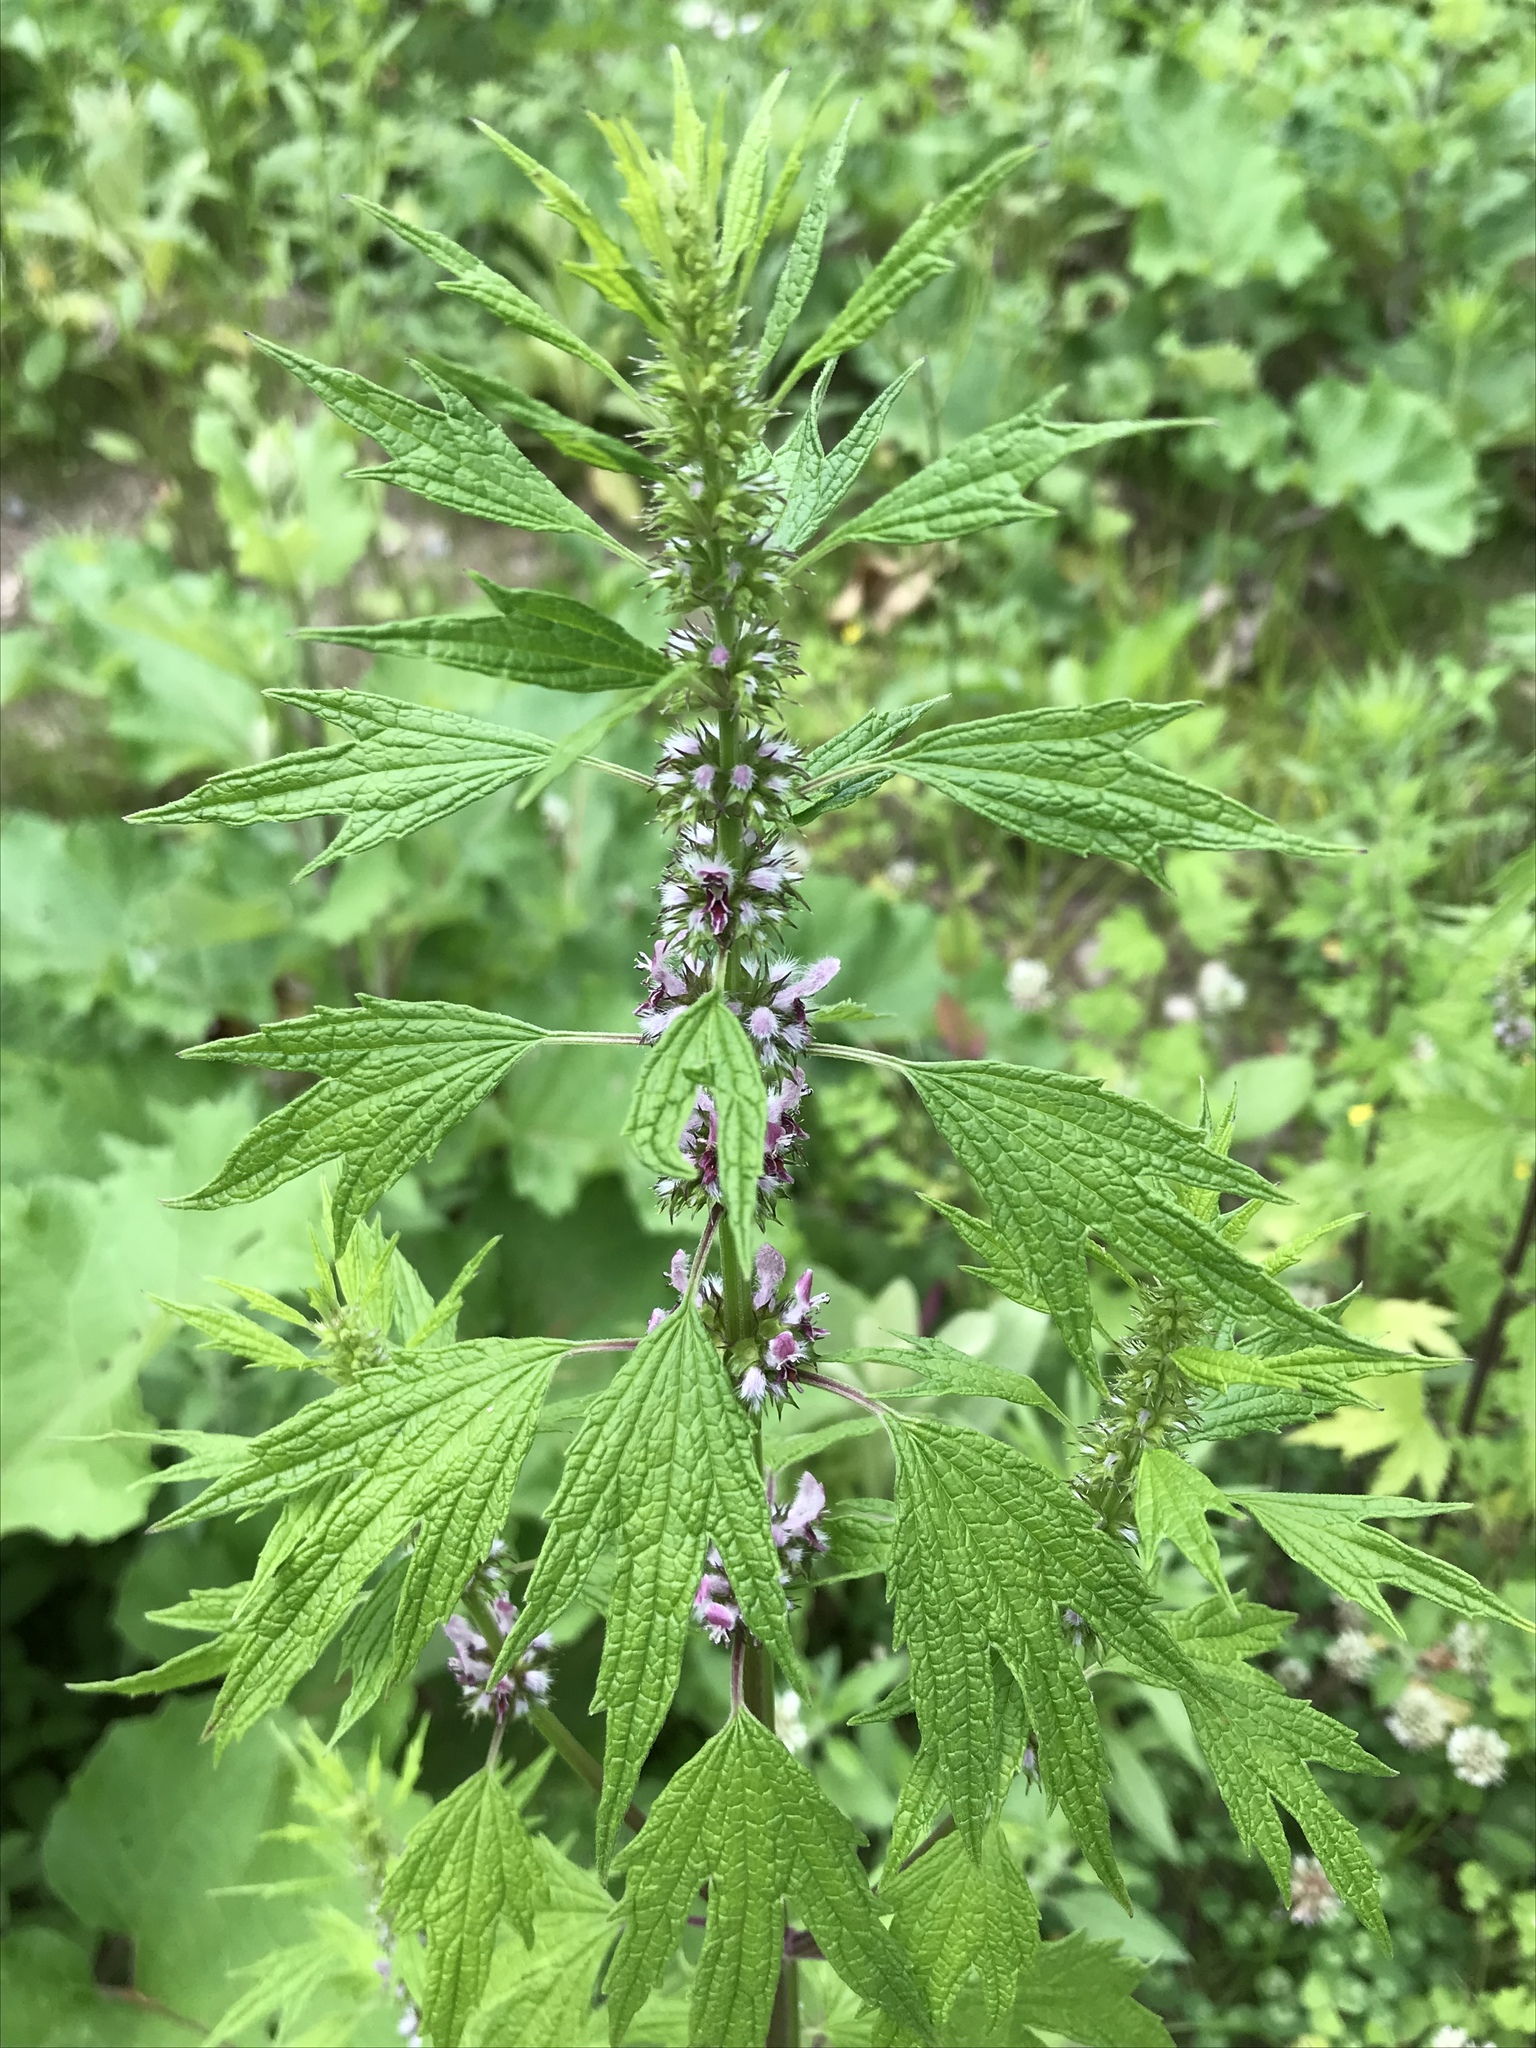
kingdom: Plantae
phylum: Tracheophyta
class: Magnoliopsida
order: Lamiales
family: Lamiaceae
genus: Leonurus
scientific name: Leonurus cardiaca
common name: Motherwort
